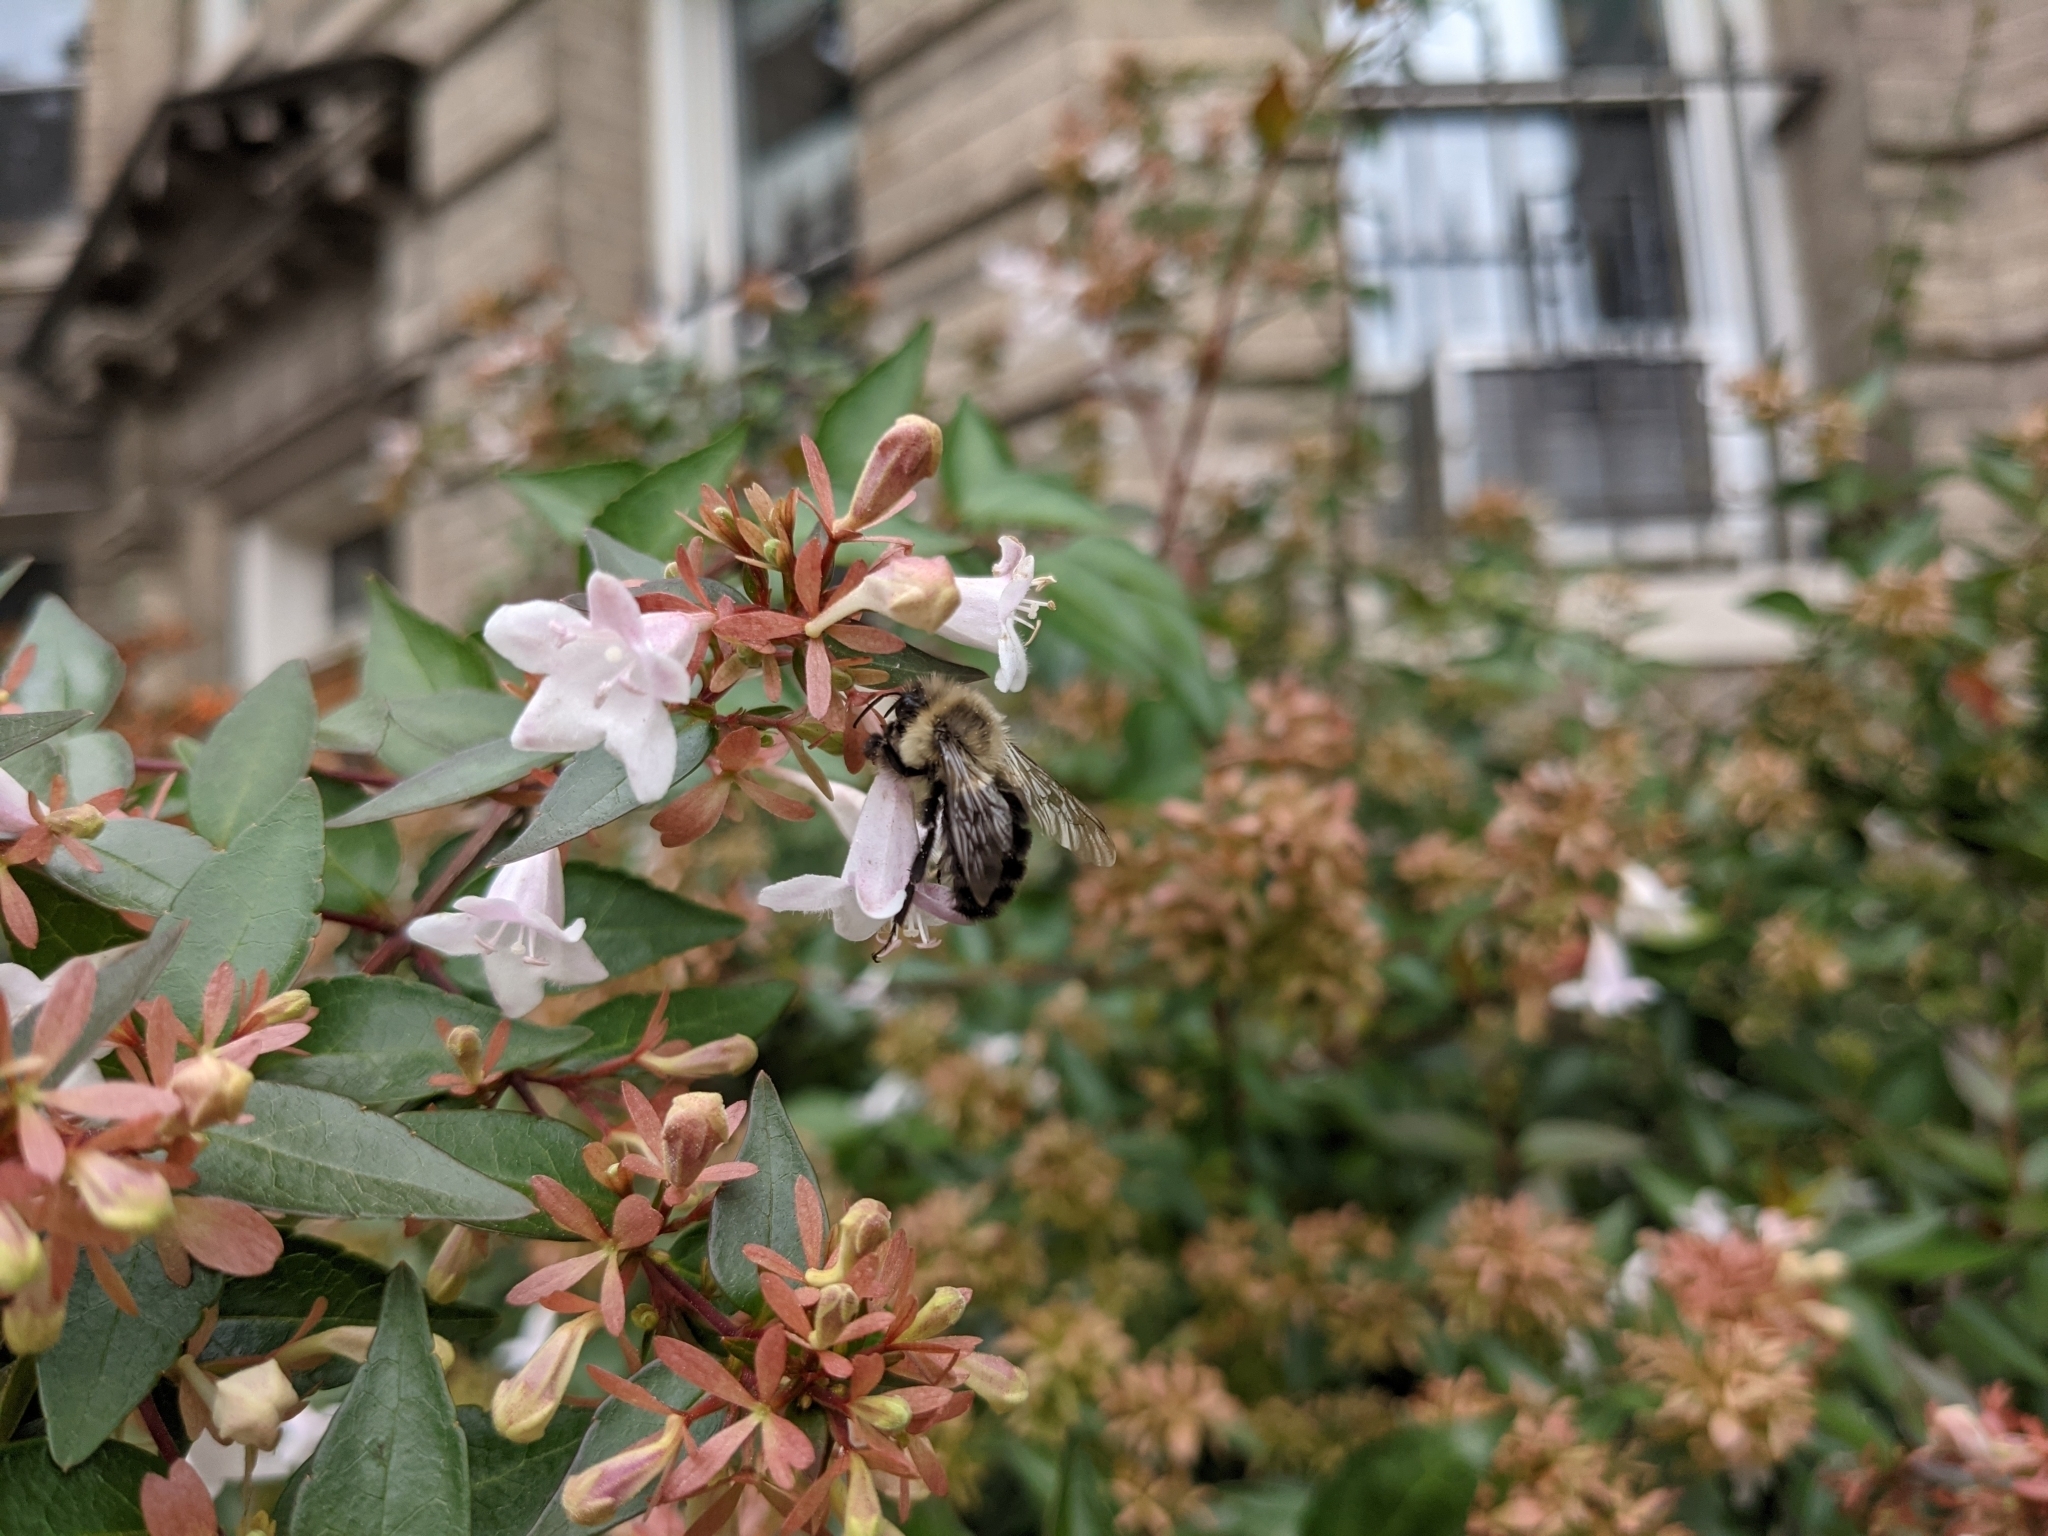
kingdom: Animalia
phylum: Arthropoda
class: Insecta
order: Hymenoptera
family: Apidae
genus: Bombus
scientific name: Bombus impatiens
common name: Common eastern bumble bee
